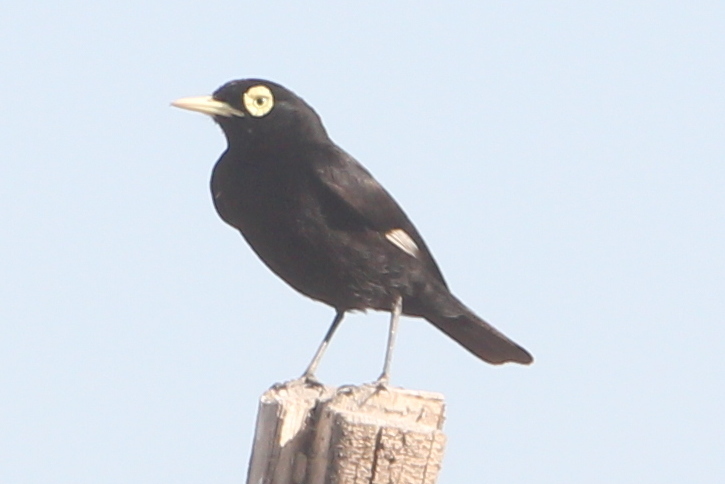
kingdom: Animalia
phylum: Chordata
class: Aves
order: Passeriformes
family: Tyrannidae
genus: Hymenops
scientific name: Hymenops perspicillatus
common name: Spectacled tyrant
